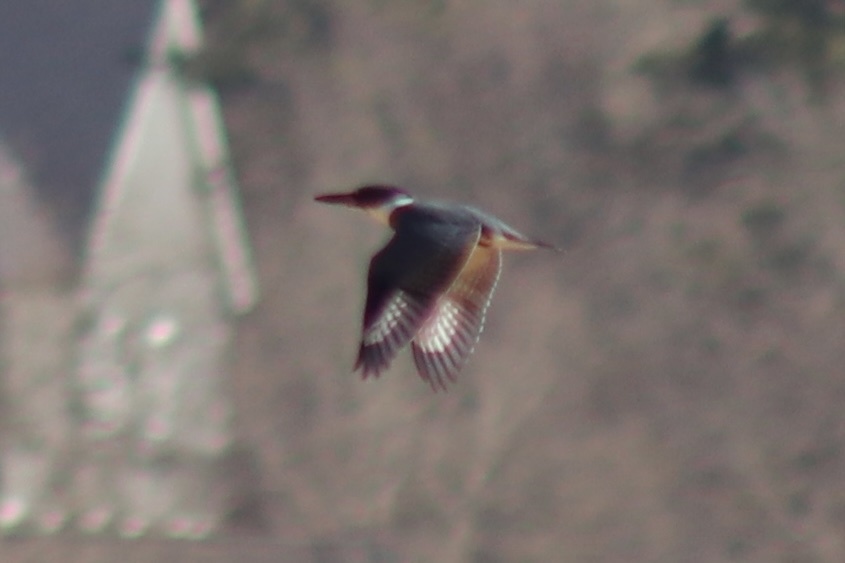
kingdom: Animalia
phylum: Chordata
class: Aves
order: Coraciiformes
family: Alcedinidae
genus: Megaceryle
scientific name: Megaceryle alcyon
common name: Belted kingfisher
